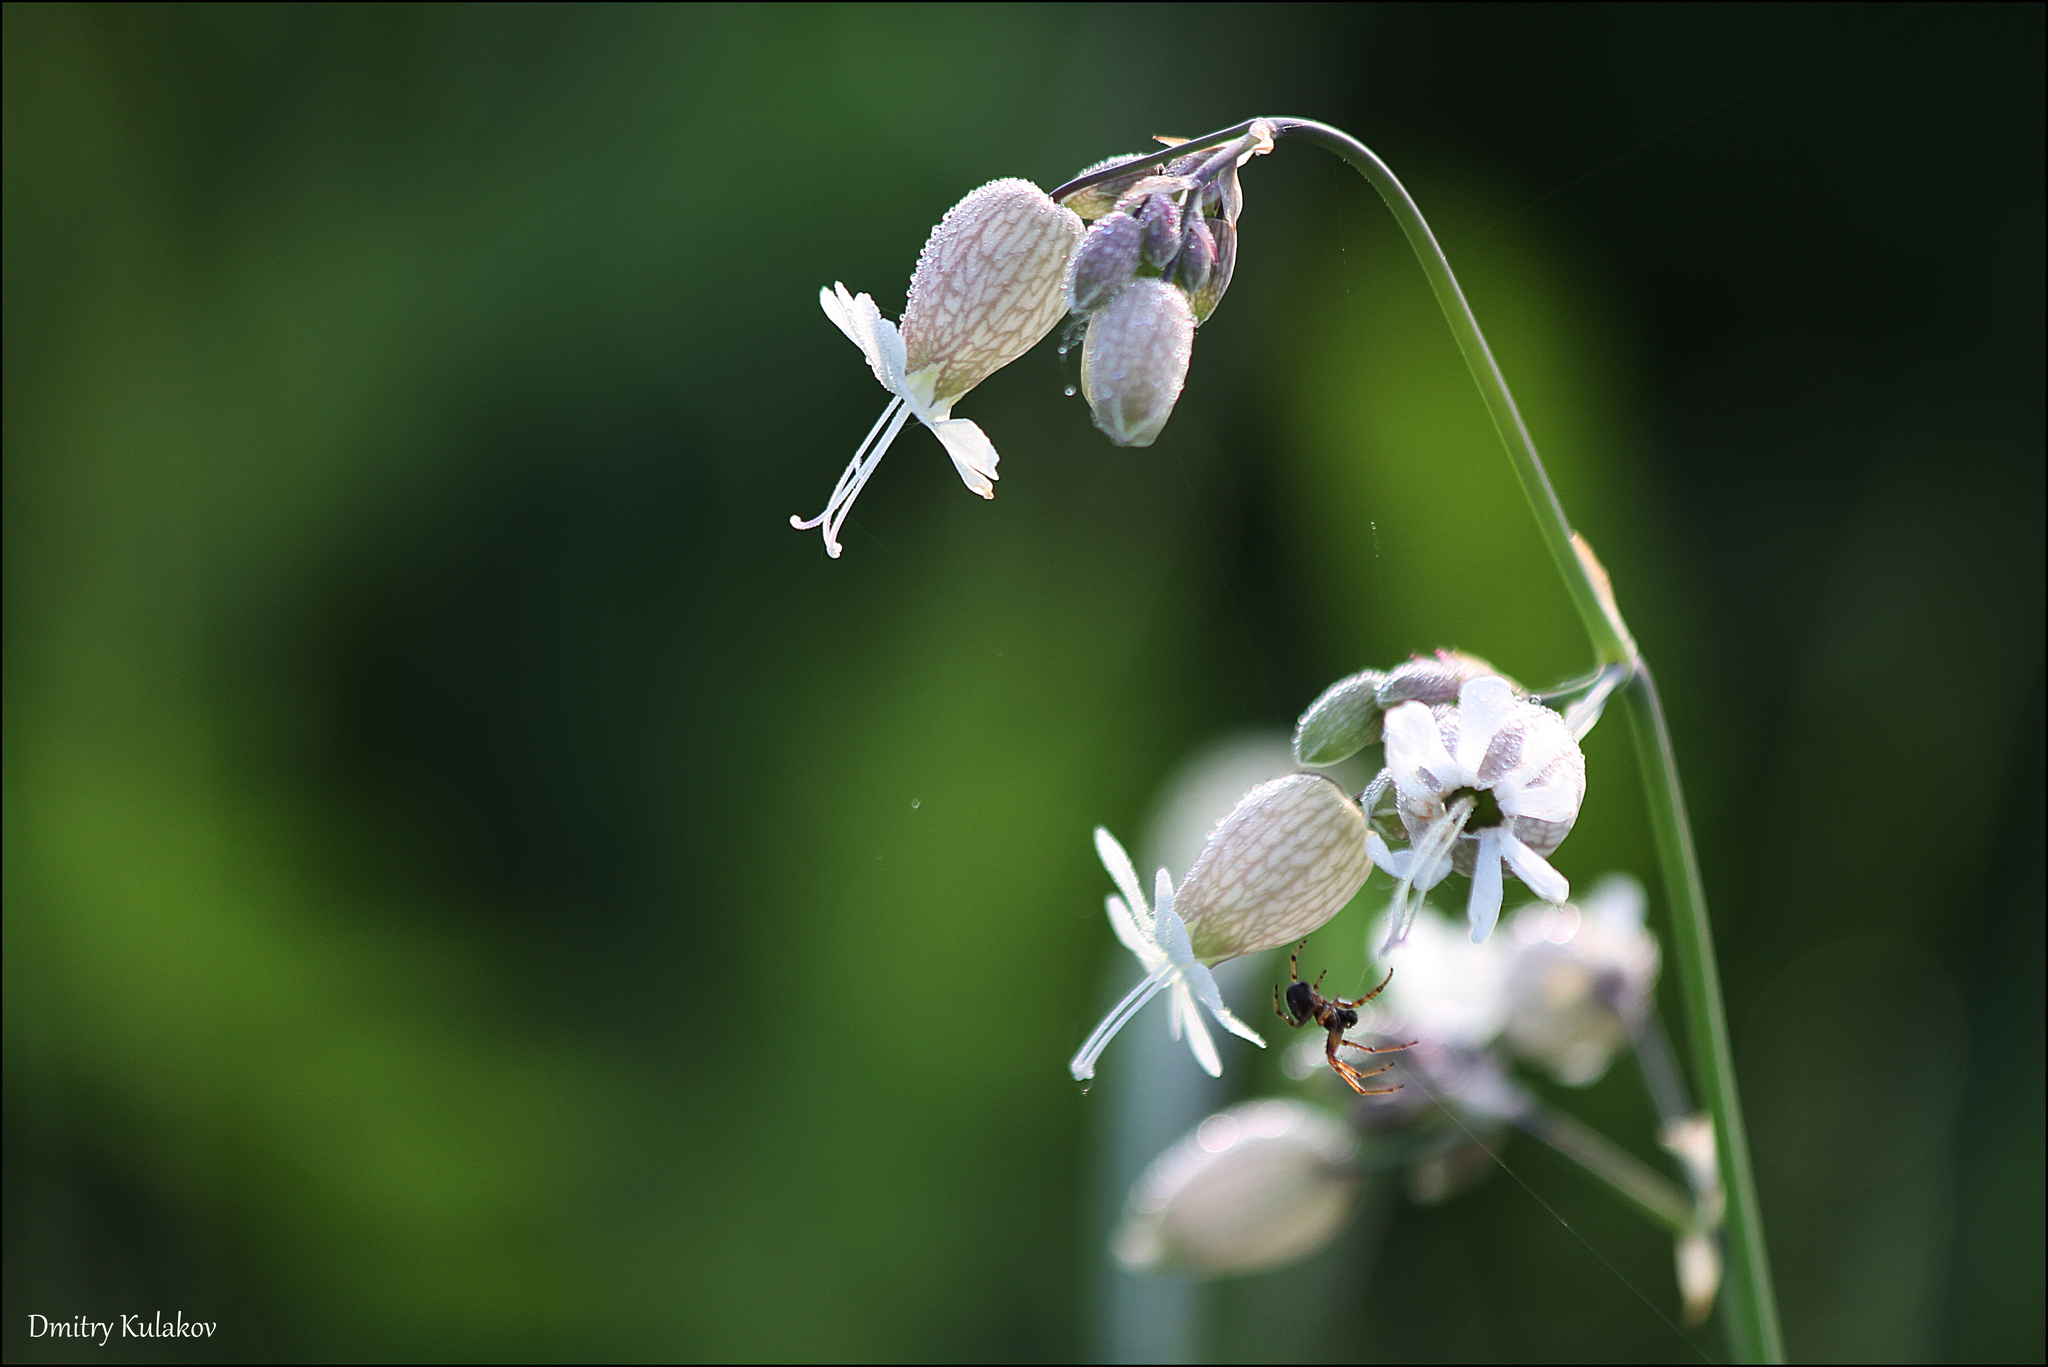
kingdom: Plantae
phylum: Tracheophyta
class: Magnoliopsida
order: Caryophyllales
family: Caryophyllaceae
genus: Silene
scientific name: Silene vulgaris
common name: Bladder campion
